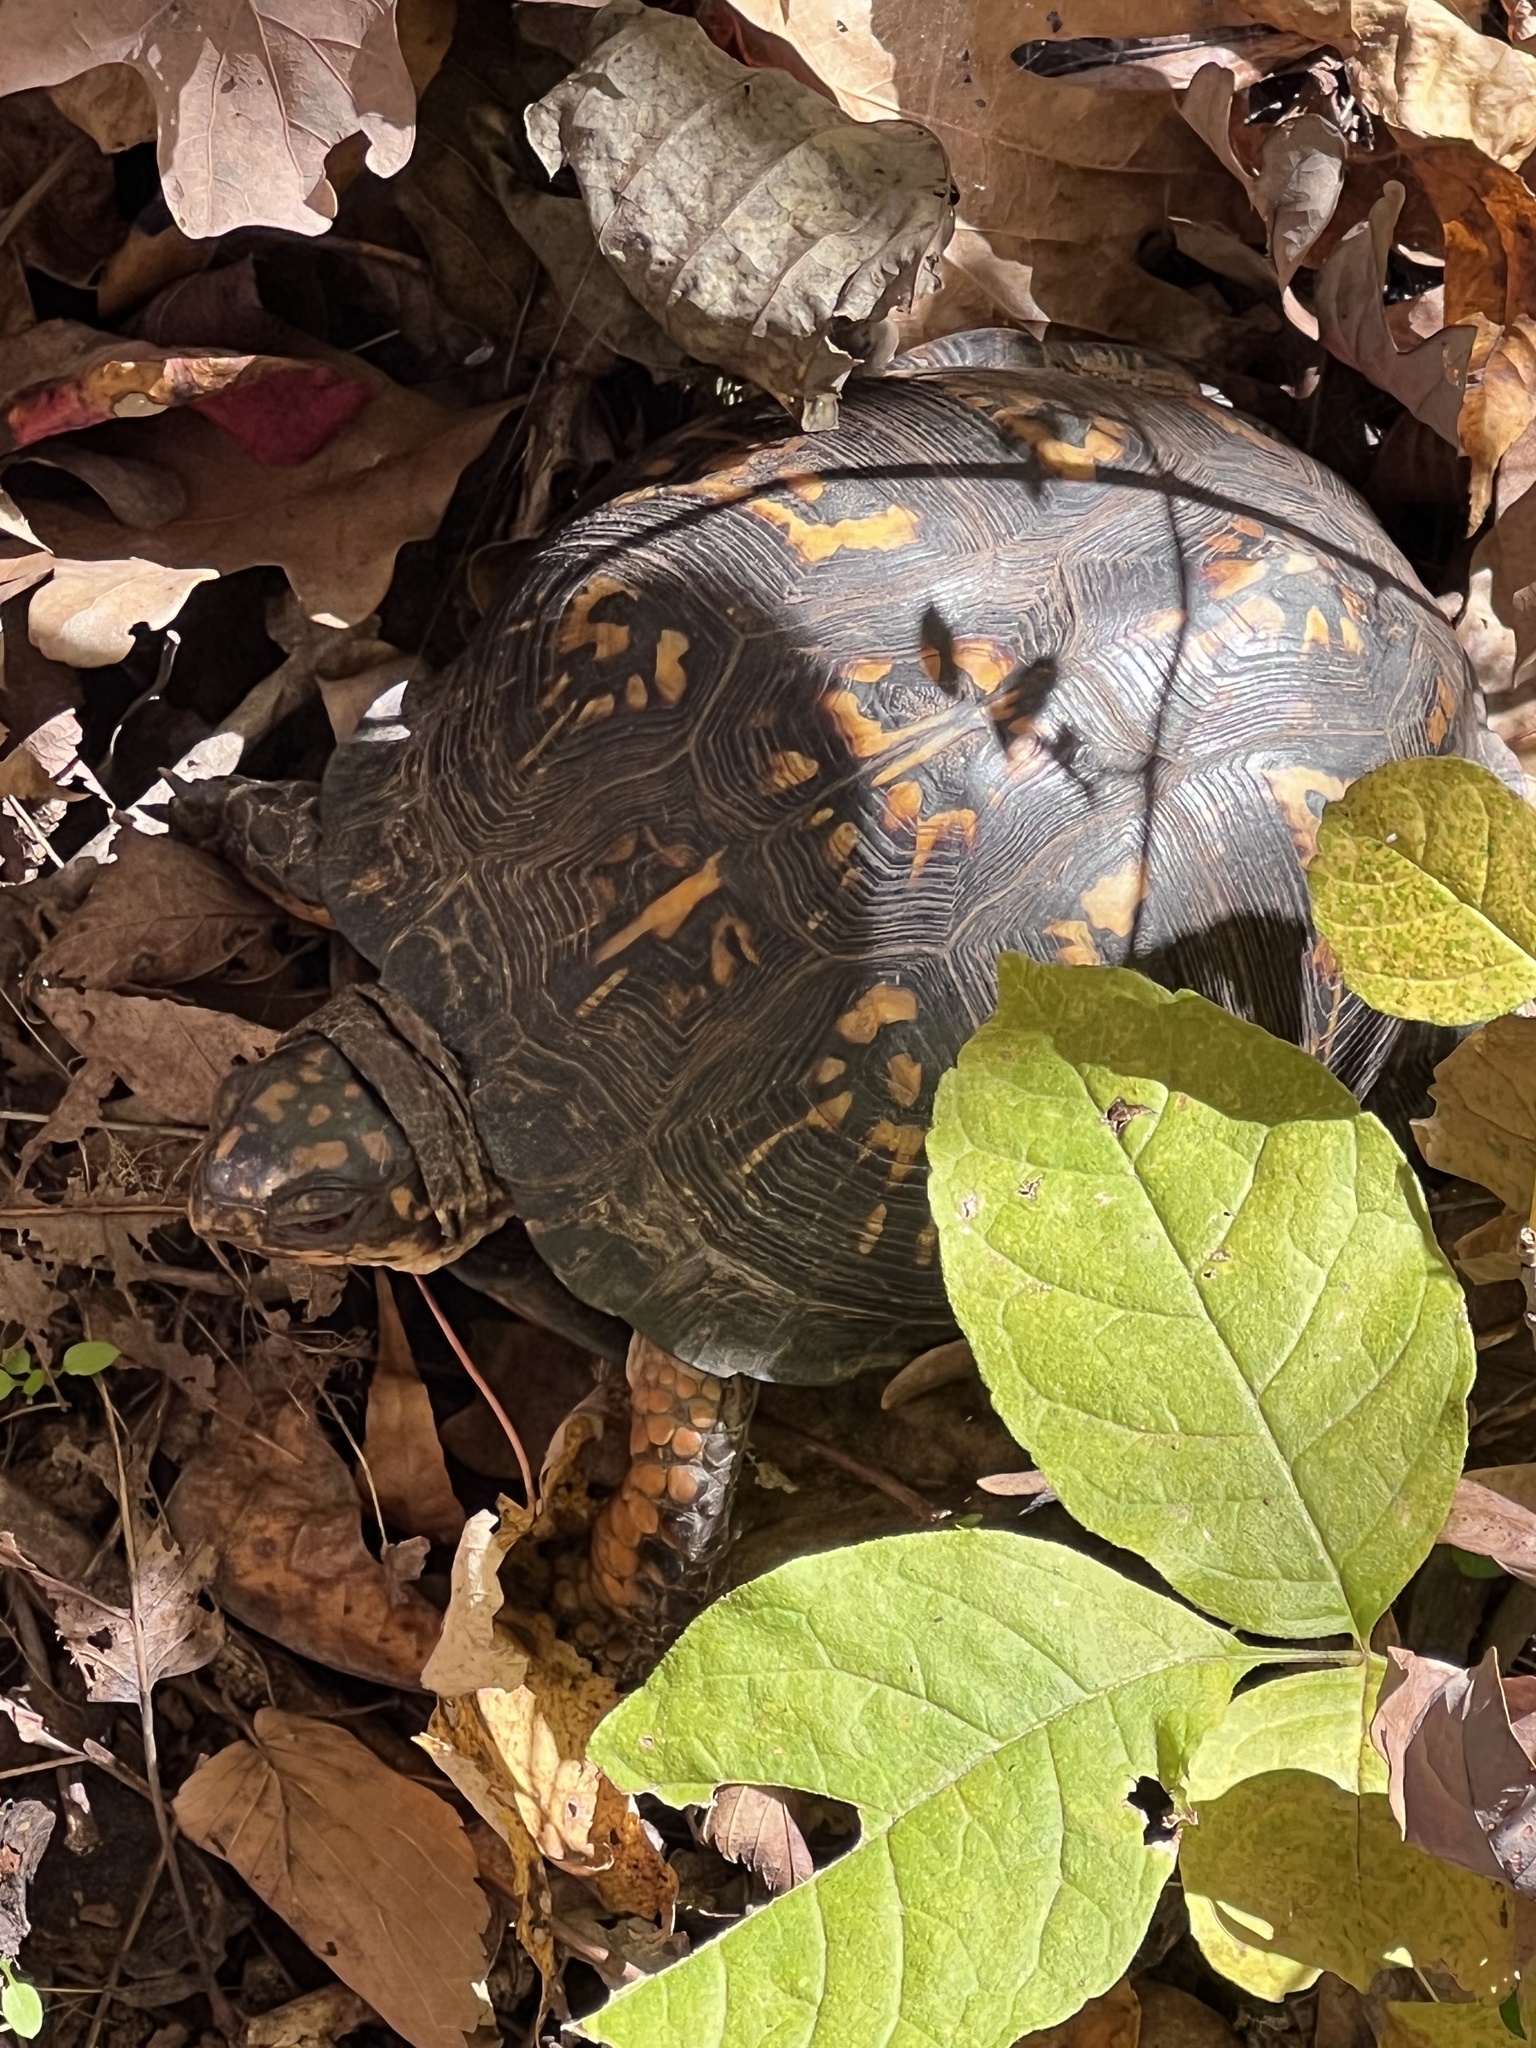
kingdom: Animalia
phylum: Chordata
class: Testudines
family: Emydidae
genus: Terrapene
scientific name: Terrapene carolina
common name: Common box turtle
